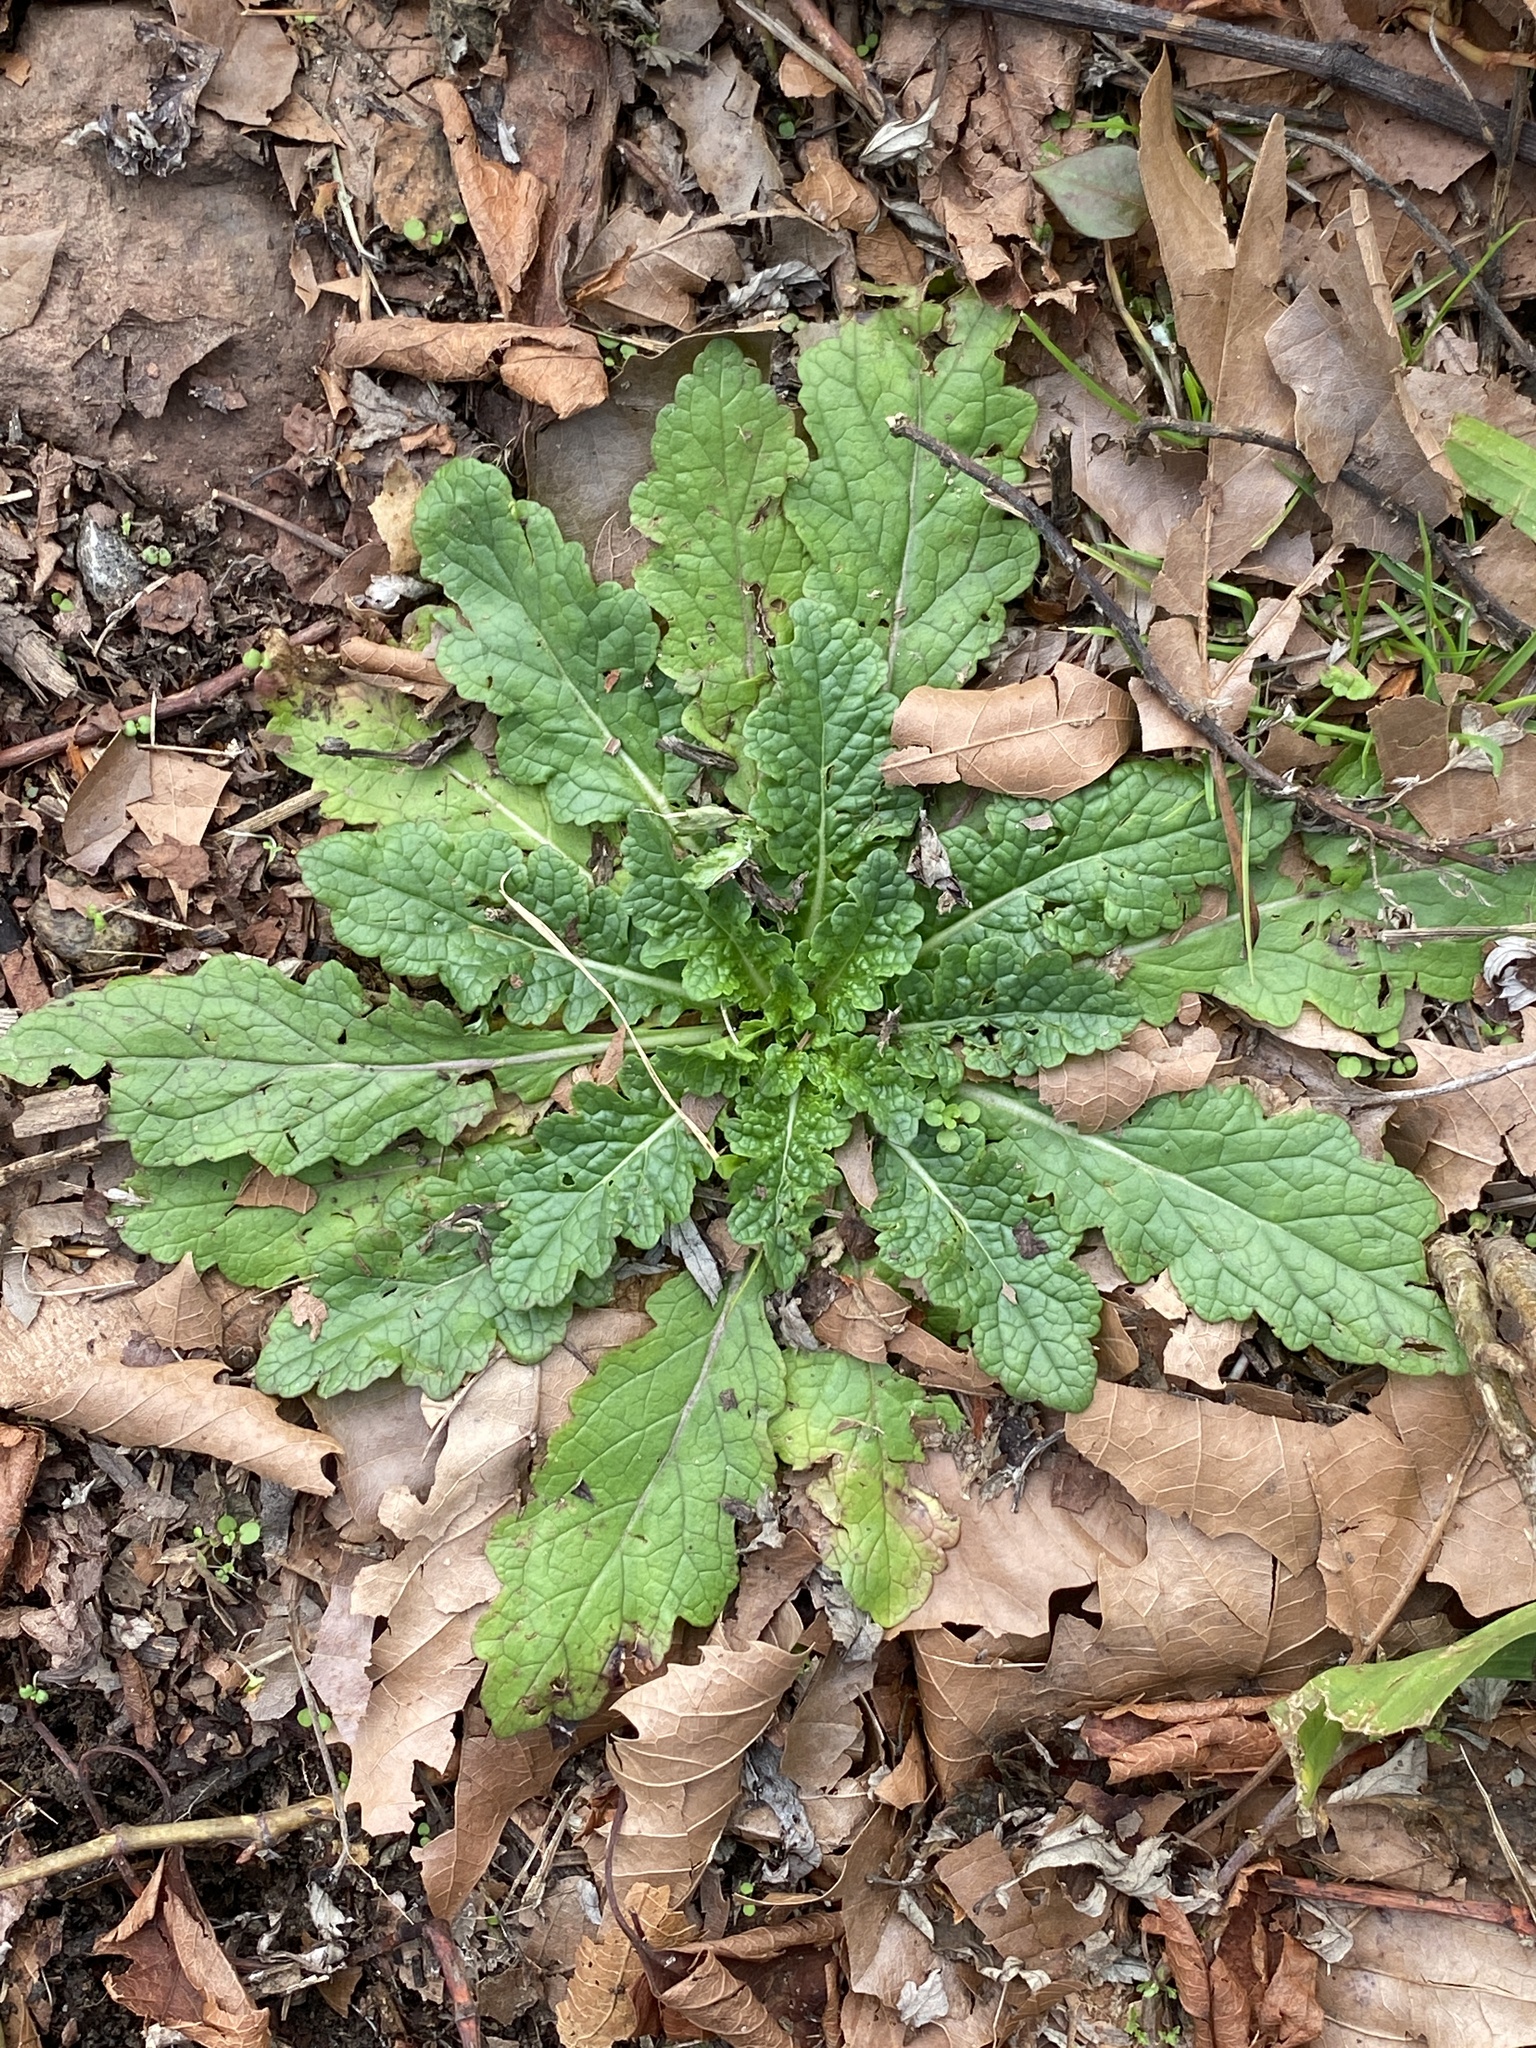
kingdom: Plantae
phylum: Tracheophyta
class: Magnoliopsida
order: Lamiales
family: Scrophulariaceae
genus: Verbascum
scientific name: Verbascum blattaria
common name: Moth mullein
